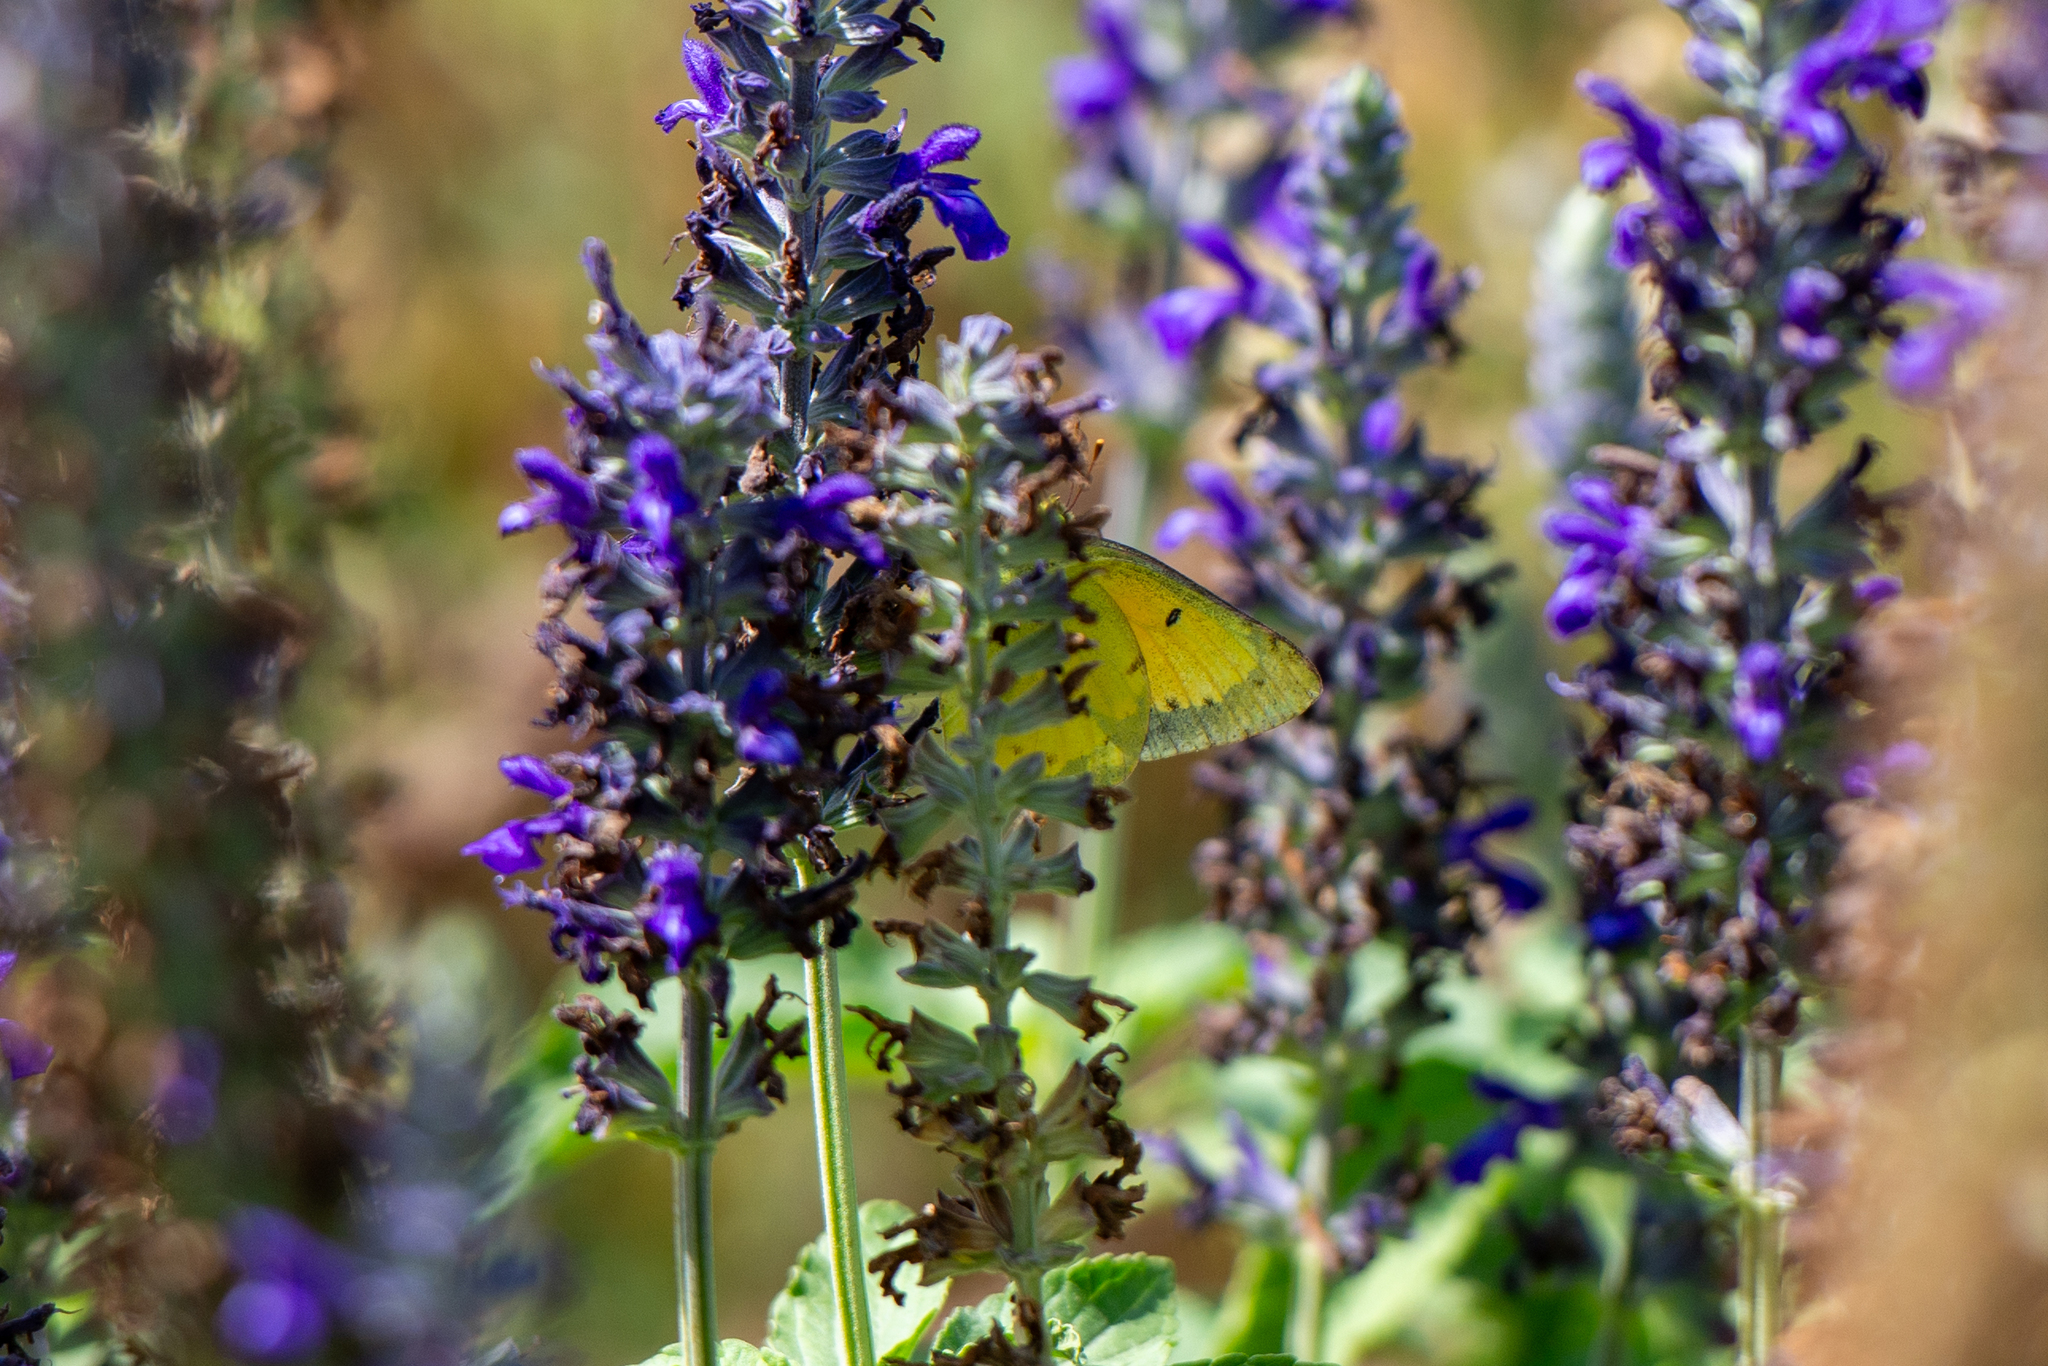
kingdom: Animalia
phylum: Arthropoda
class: Insecta
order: Lepidoptera
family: Pieridae
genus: Colias
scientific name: Colias eurytheme
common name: Alfalfa butterfly
